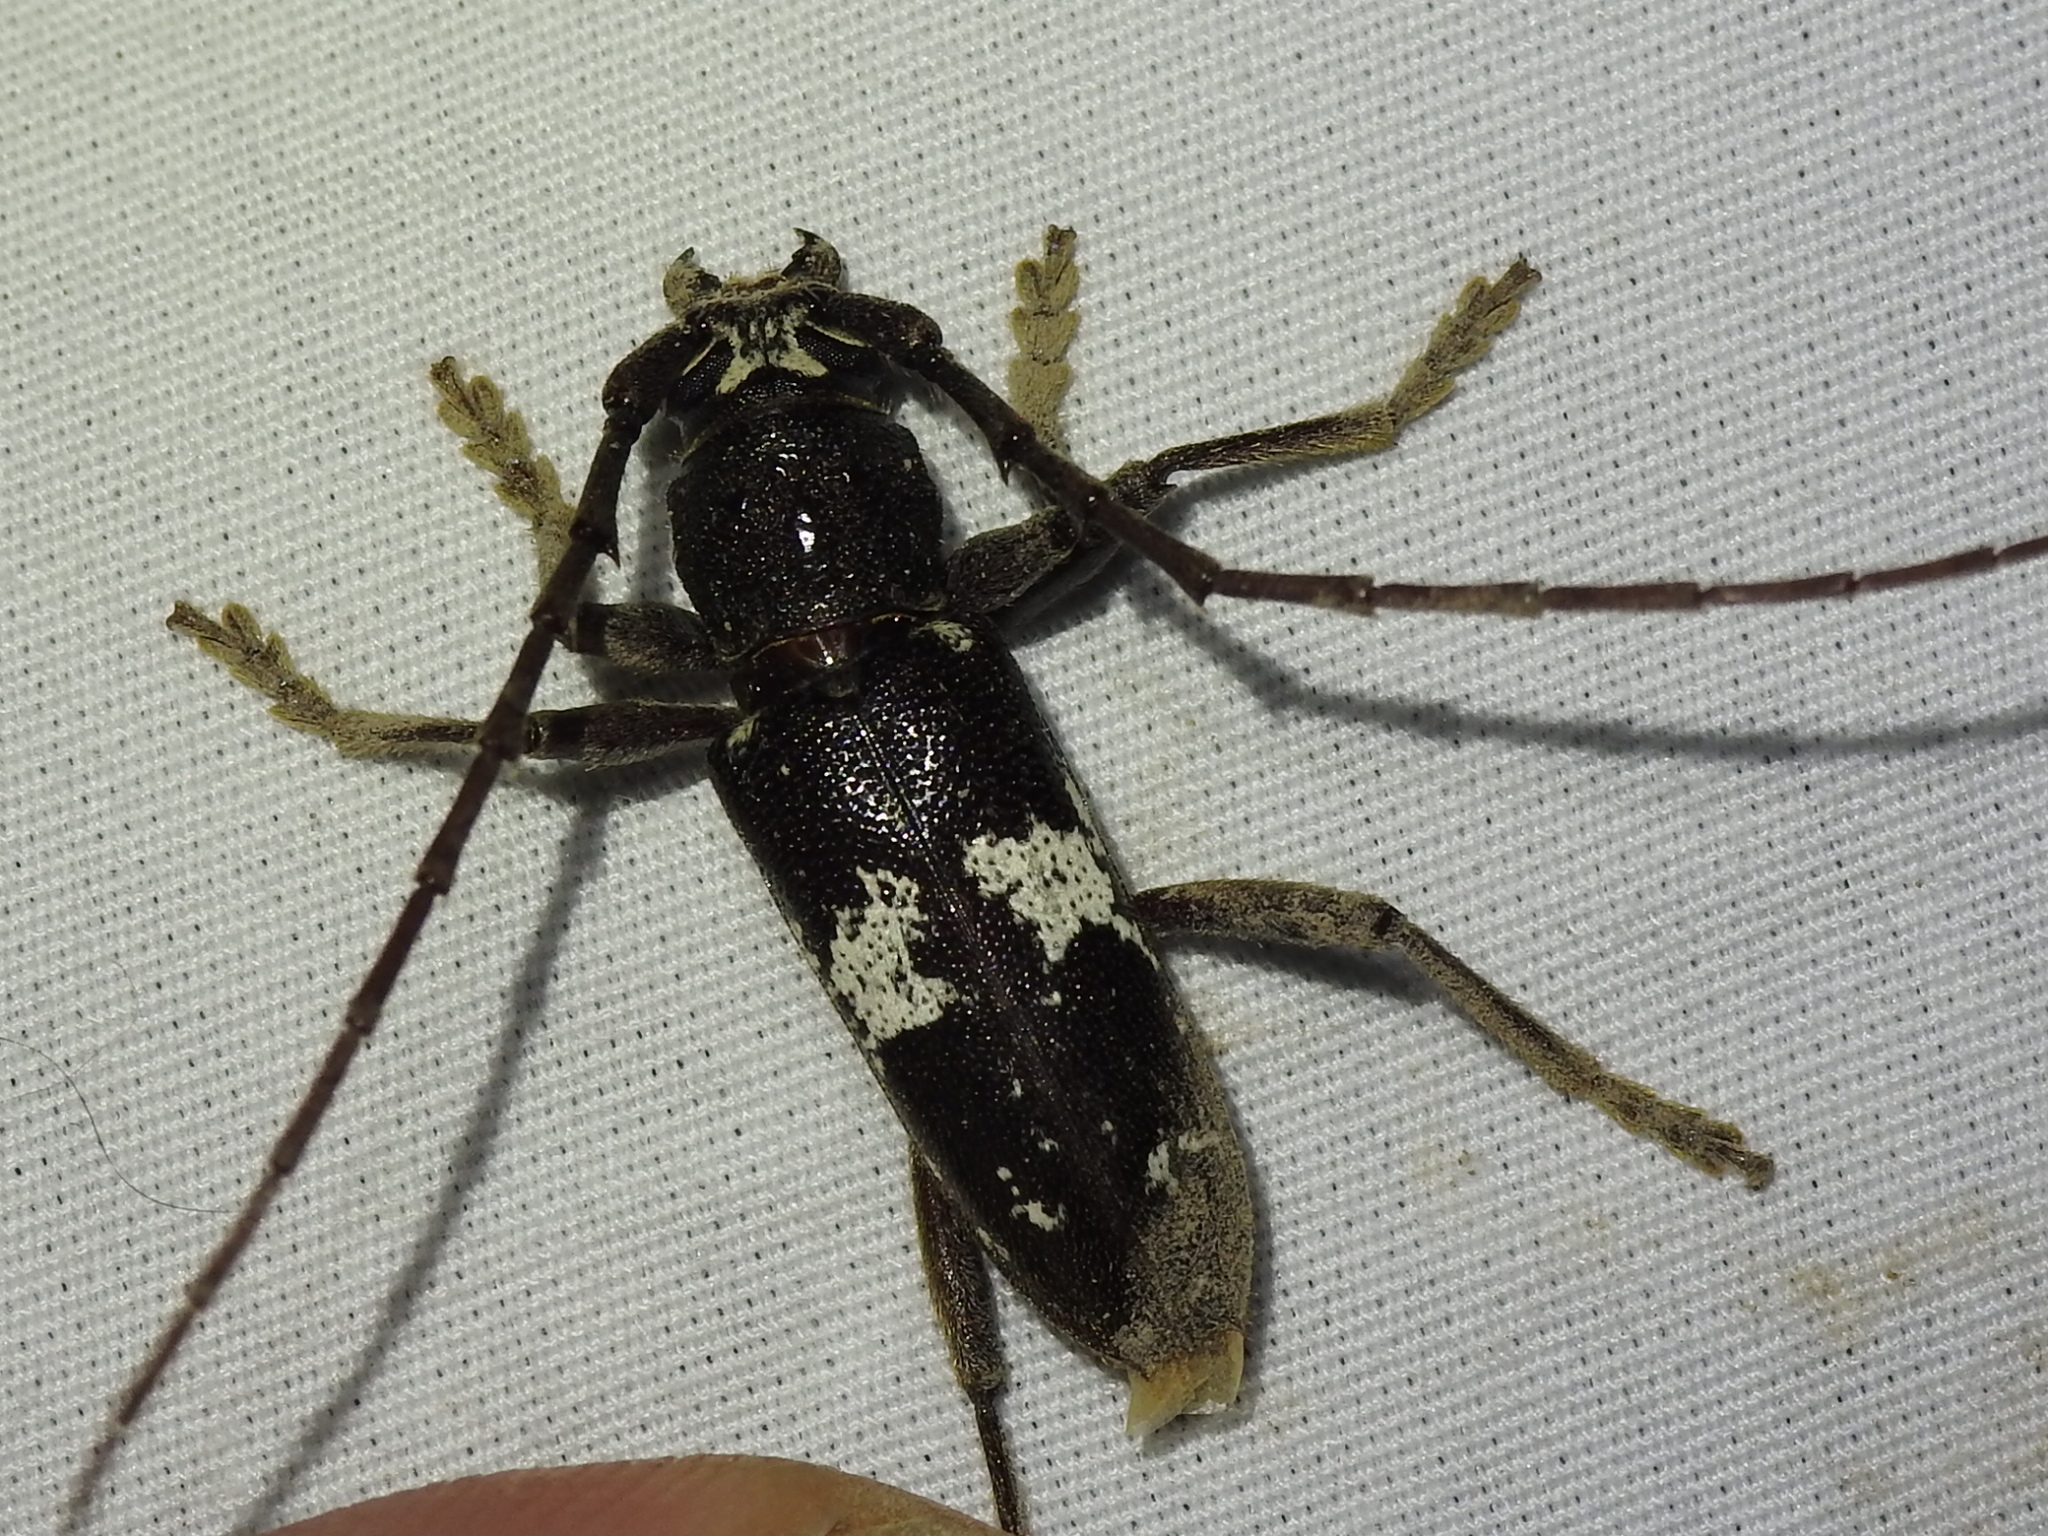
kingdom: Animalia
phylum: Arthropoda
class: Insecta
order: Coleoptera
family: Cerambycidae
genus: Enaphalodes
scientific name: Enaphalodes taeniatus
